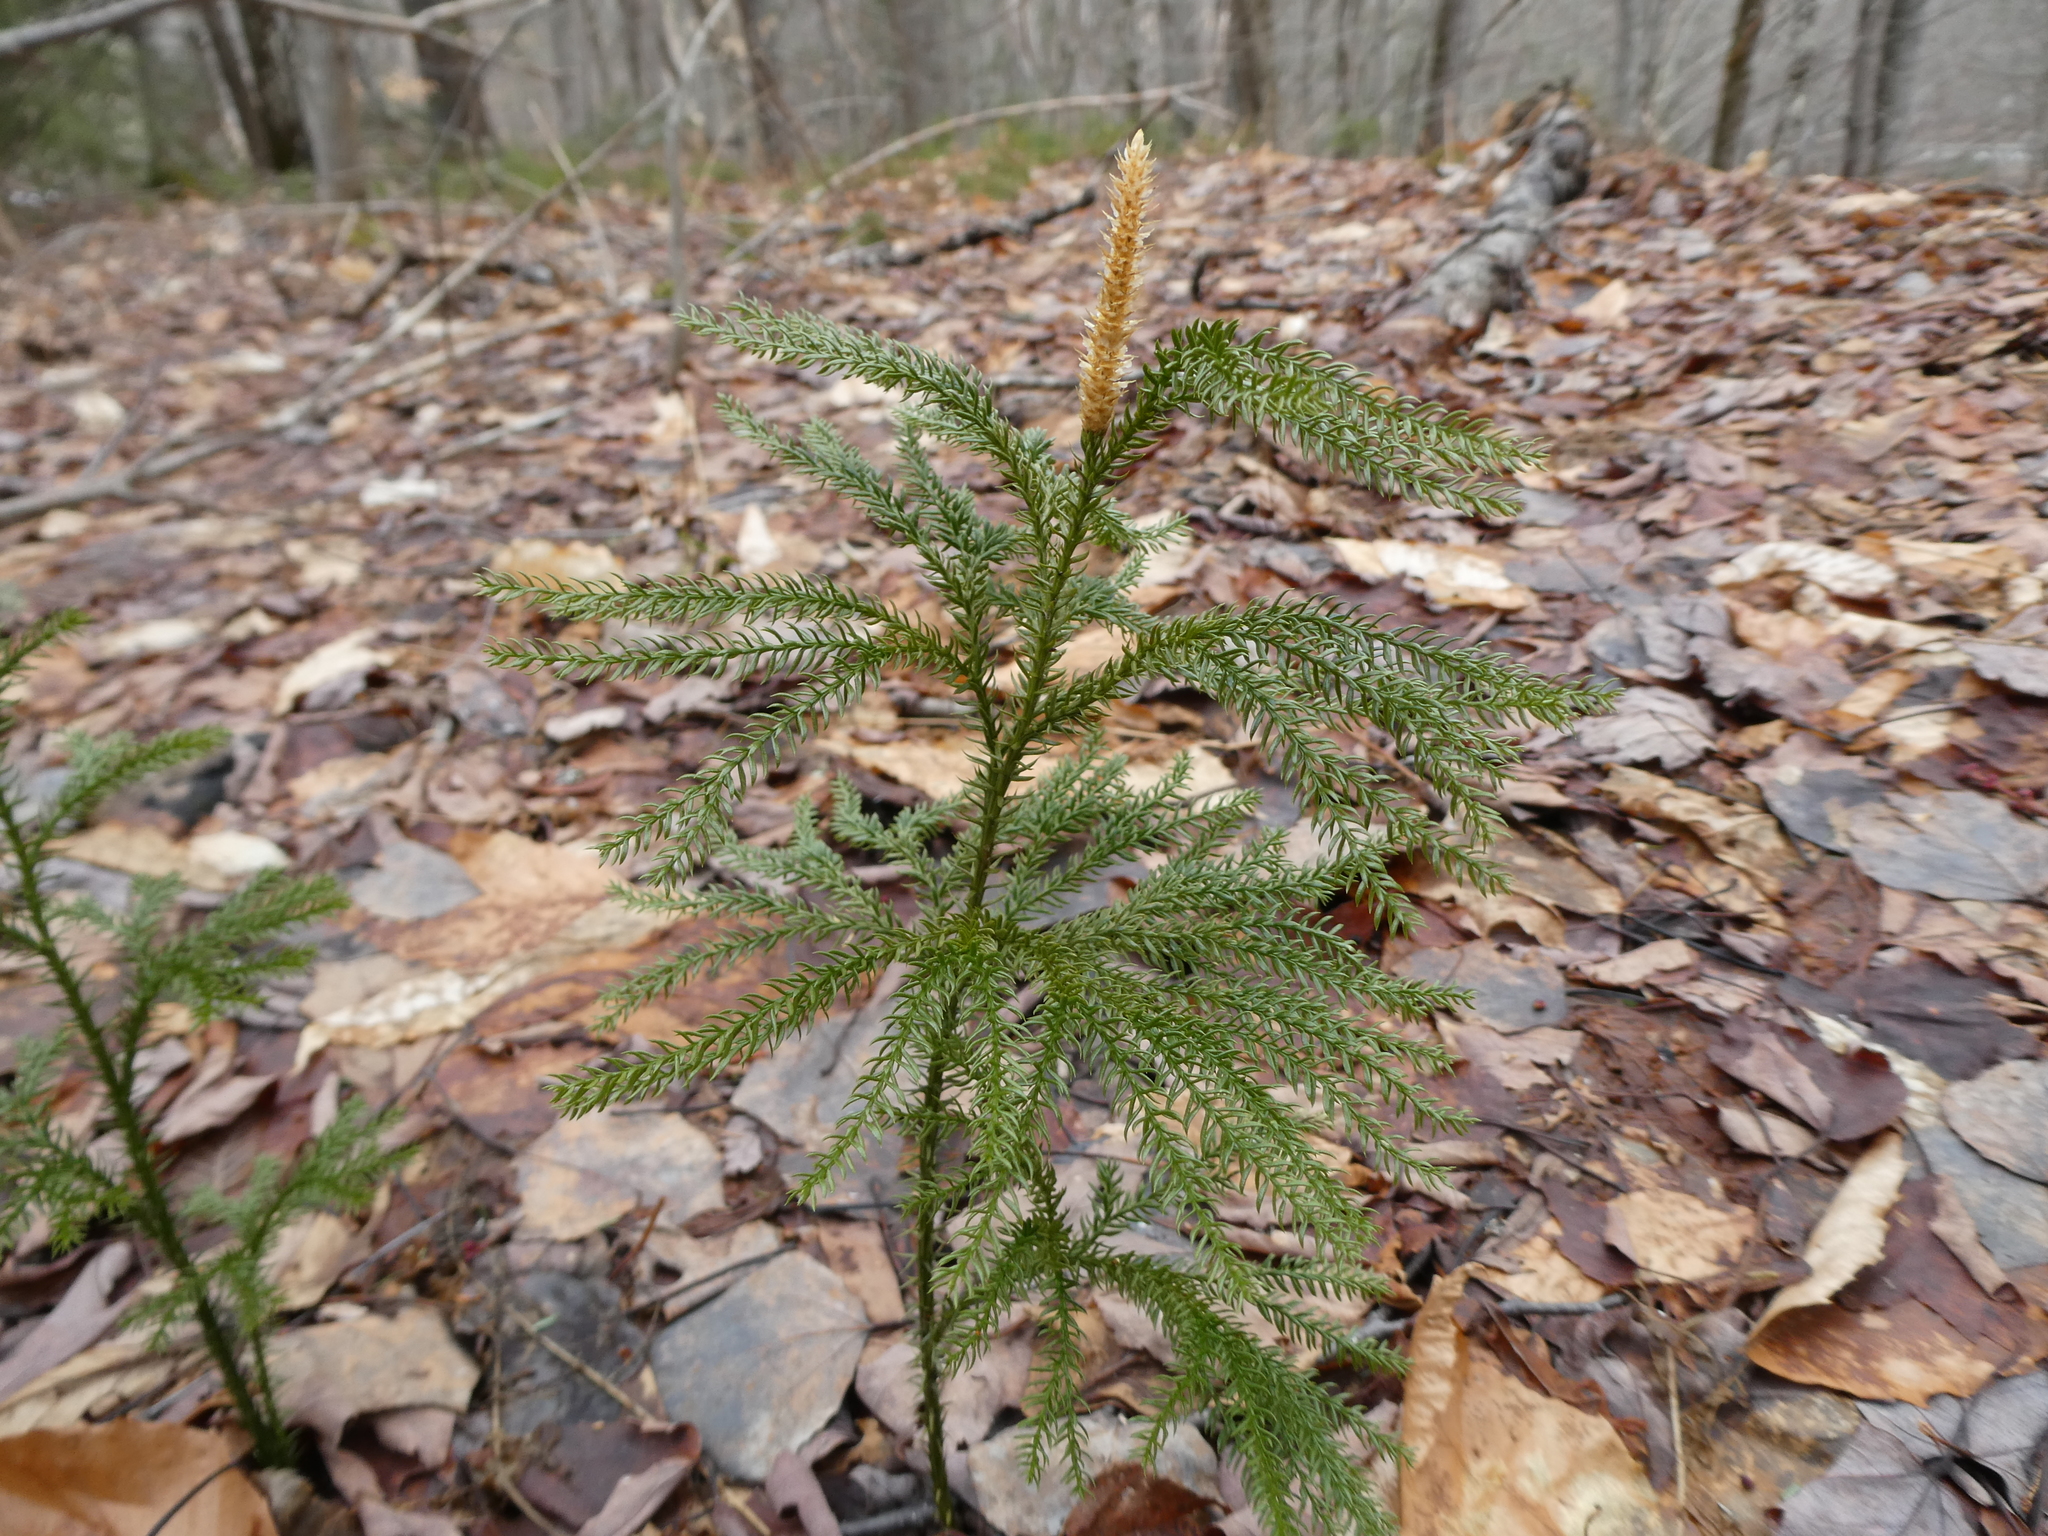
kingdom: Plantae
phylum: Tracheophyta
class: Lycopodiopsida
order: Lycopodiales
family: Lycopodiaceae
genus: Dendrolycopodium
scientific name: Dendrolycopodium dendroideum
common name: Northern tree-clubmoss
